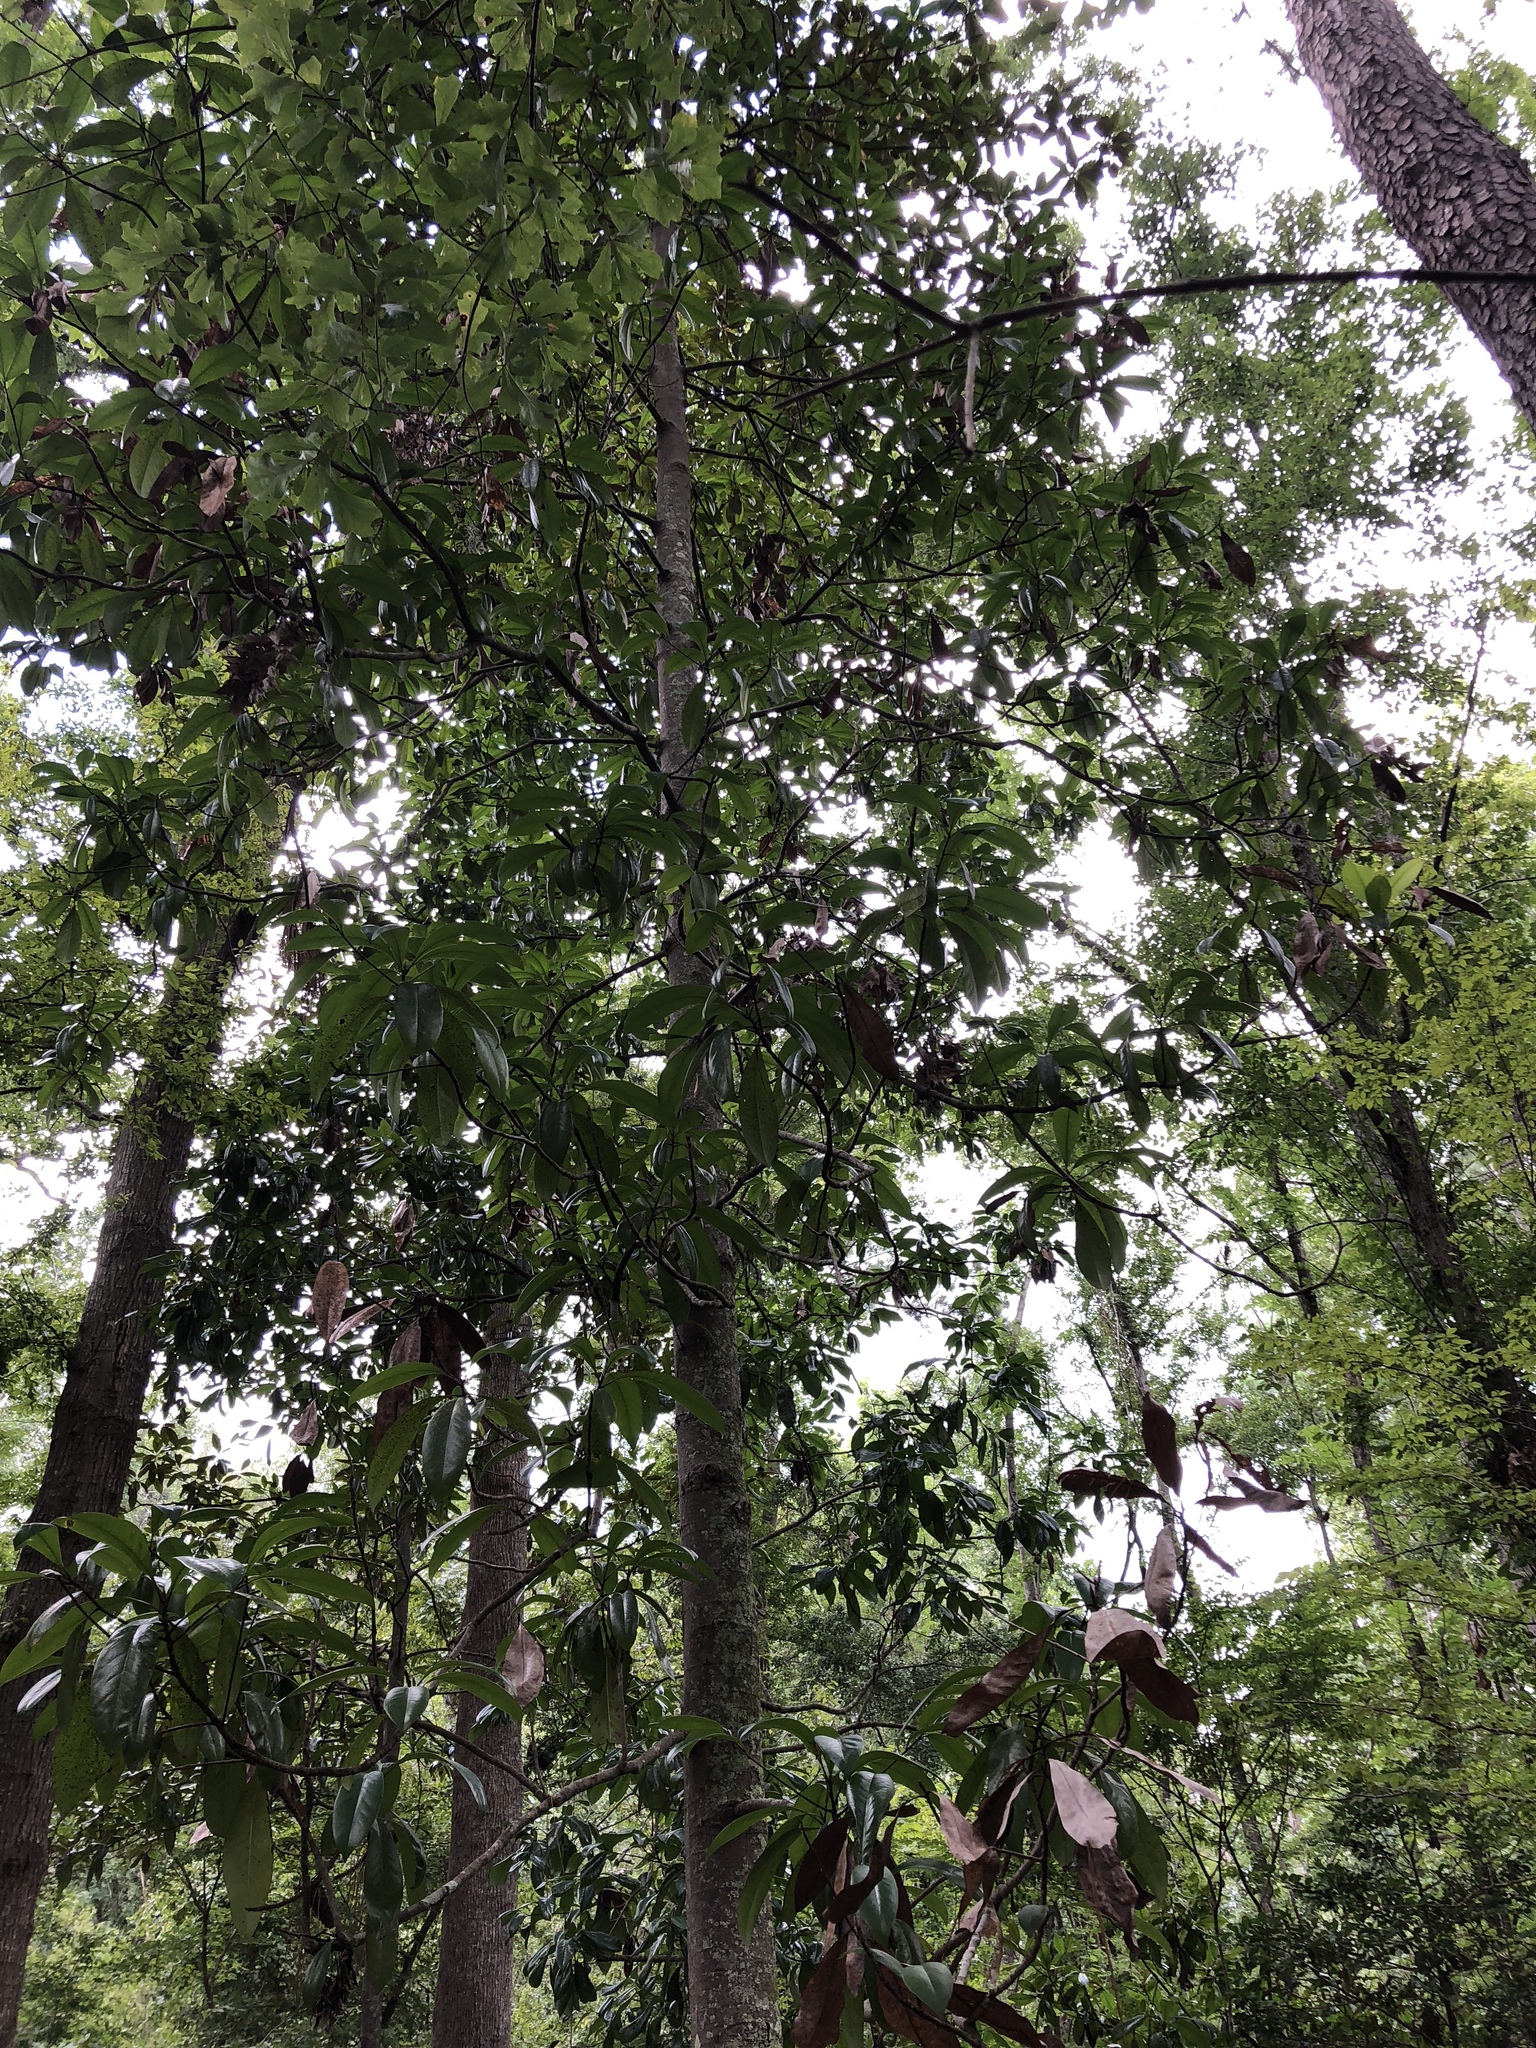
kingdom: Plantae
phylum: Tracheophyta
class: Magnoliopsida
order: Magnoliales
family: Magnoliaceae
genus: Magnolia
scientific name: Magnolia grandiflora
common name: Southern magnolia
